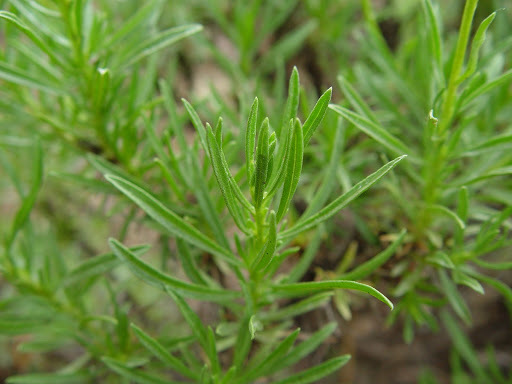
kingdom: Plantae
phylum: Tracheophyta
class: Magnoliopsida
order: Asterales
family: Asteraceae
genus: Ericameria
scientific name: Ericameria linearifolia
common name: Interior goldenbush
